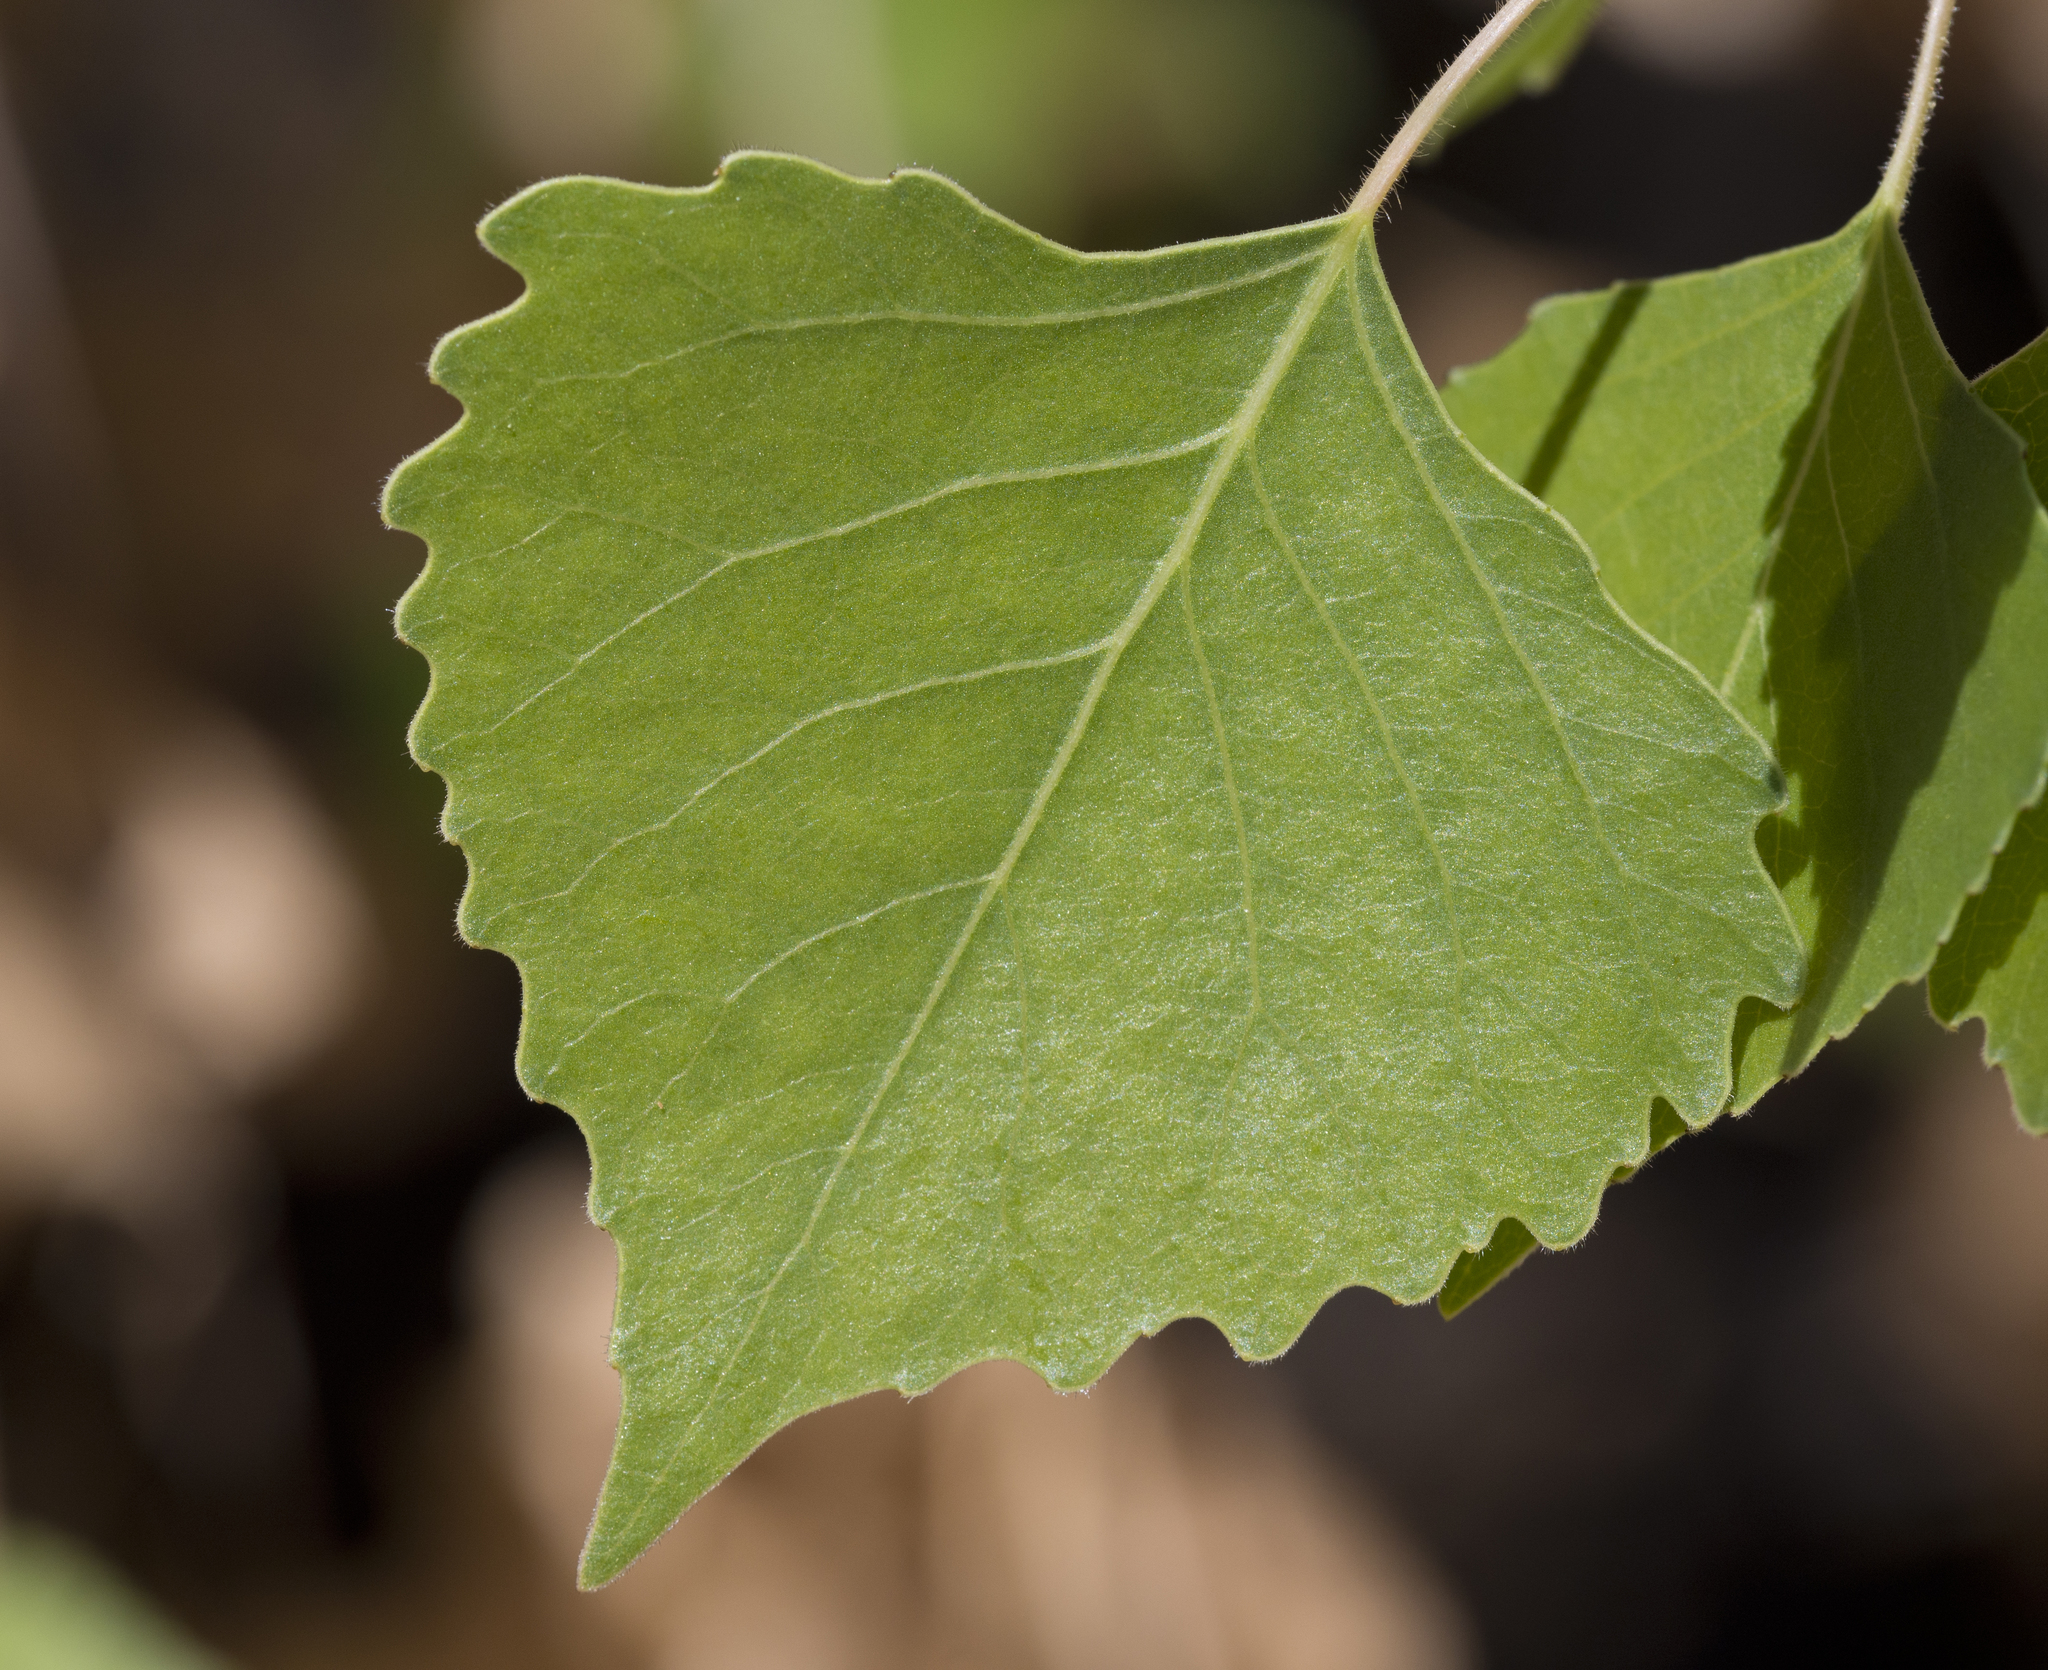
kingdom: Plantae
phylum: Tracheophyta
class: Magnoliopsida
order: Malpighiales
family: Salicaceae
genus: Populus
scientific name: Populus fremontii
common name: Fremont's cottonwood
